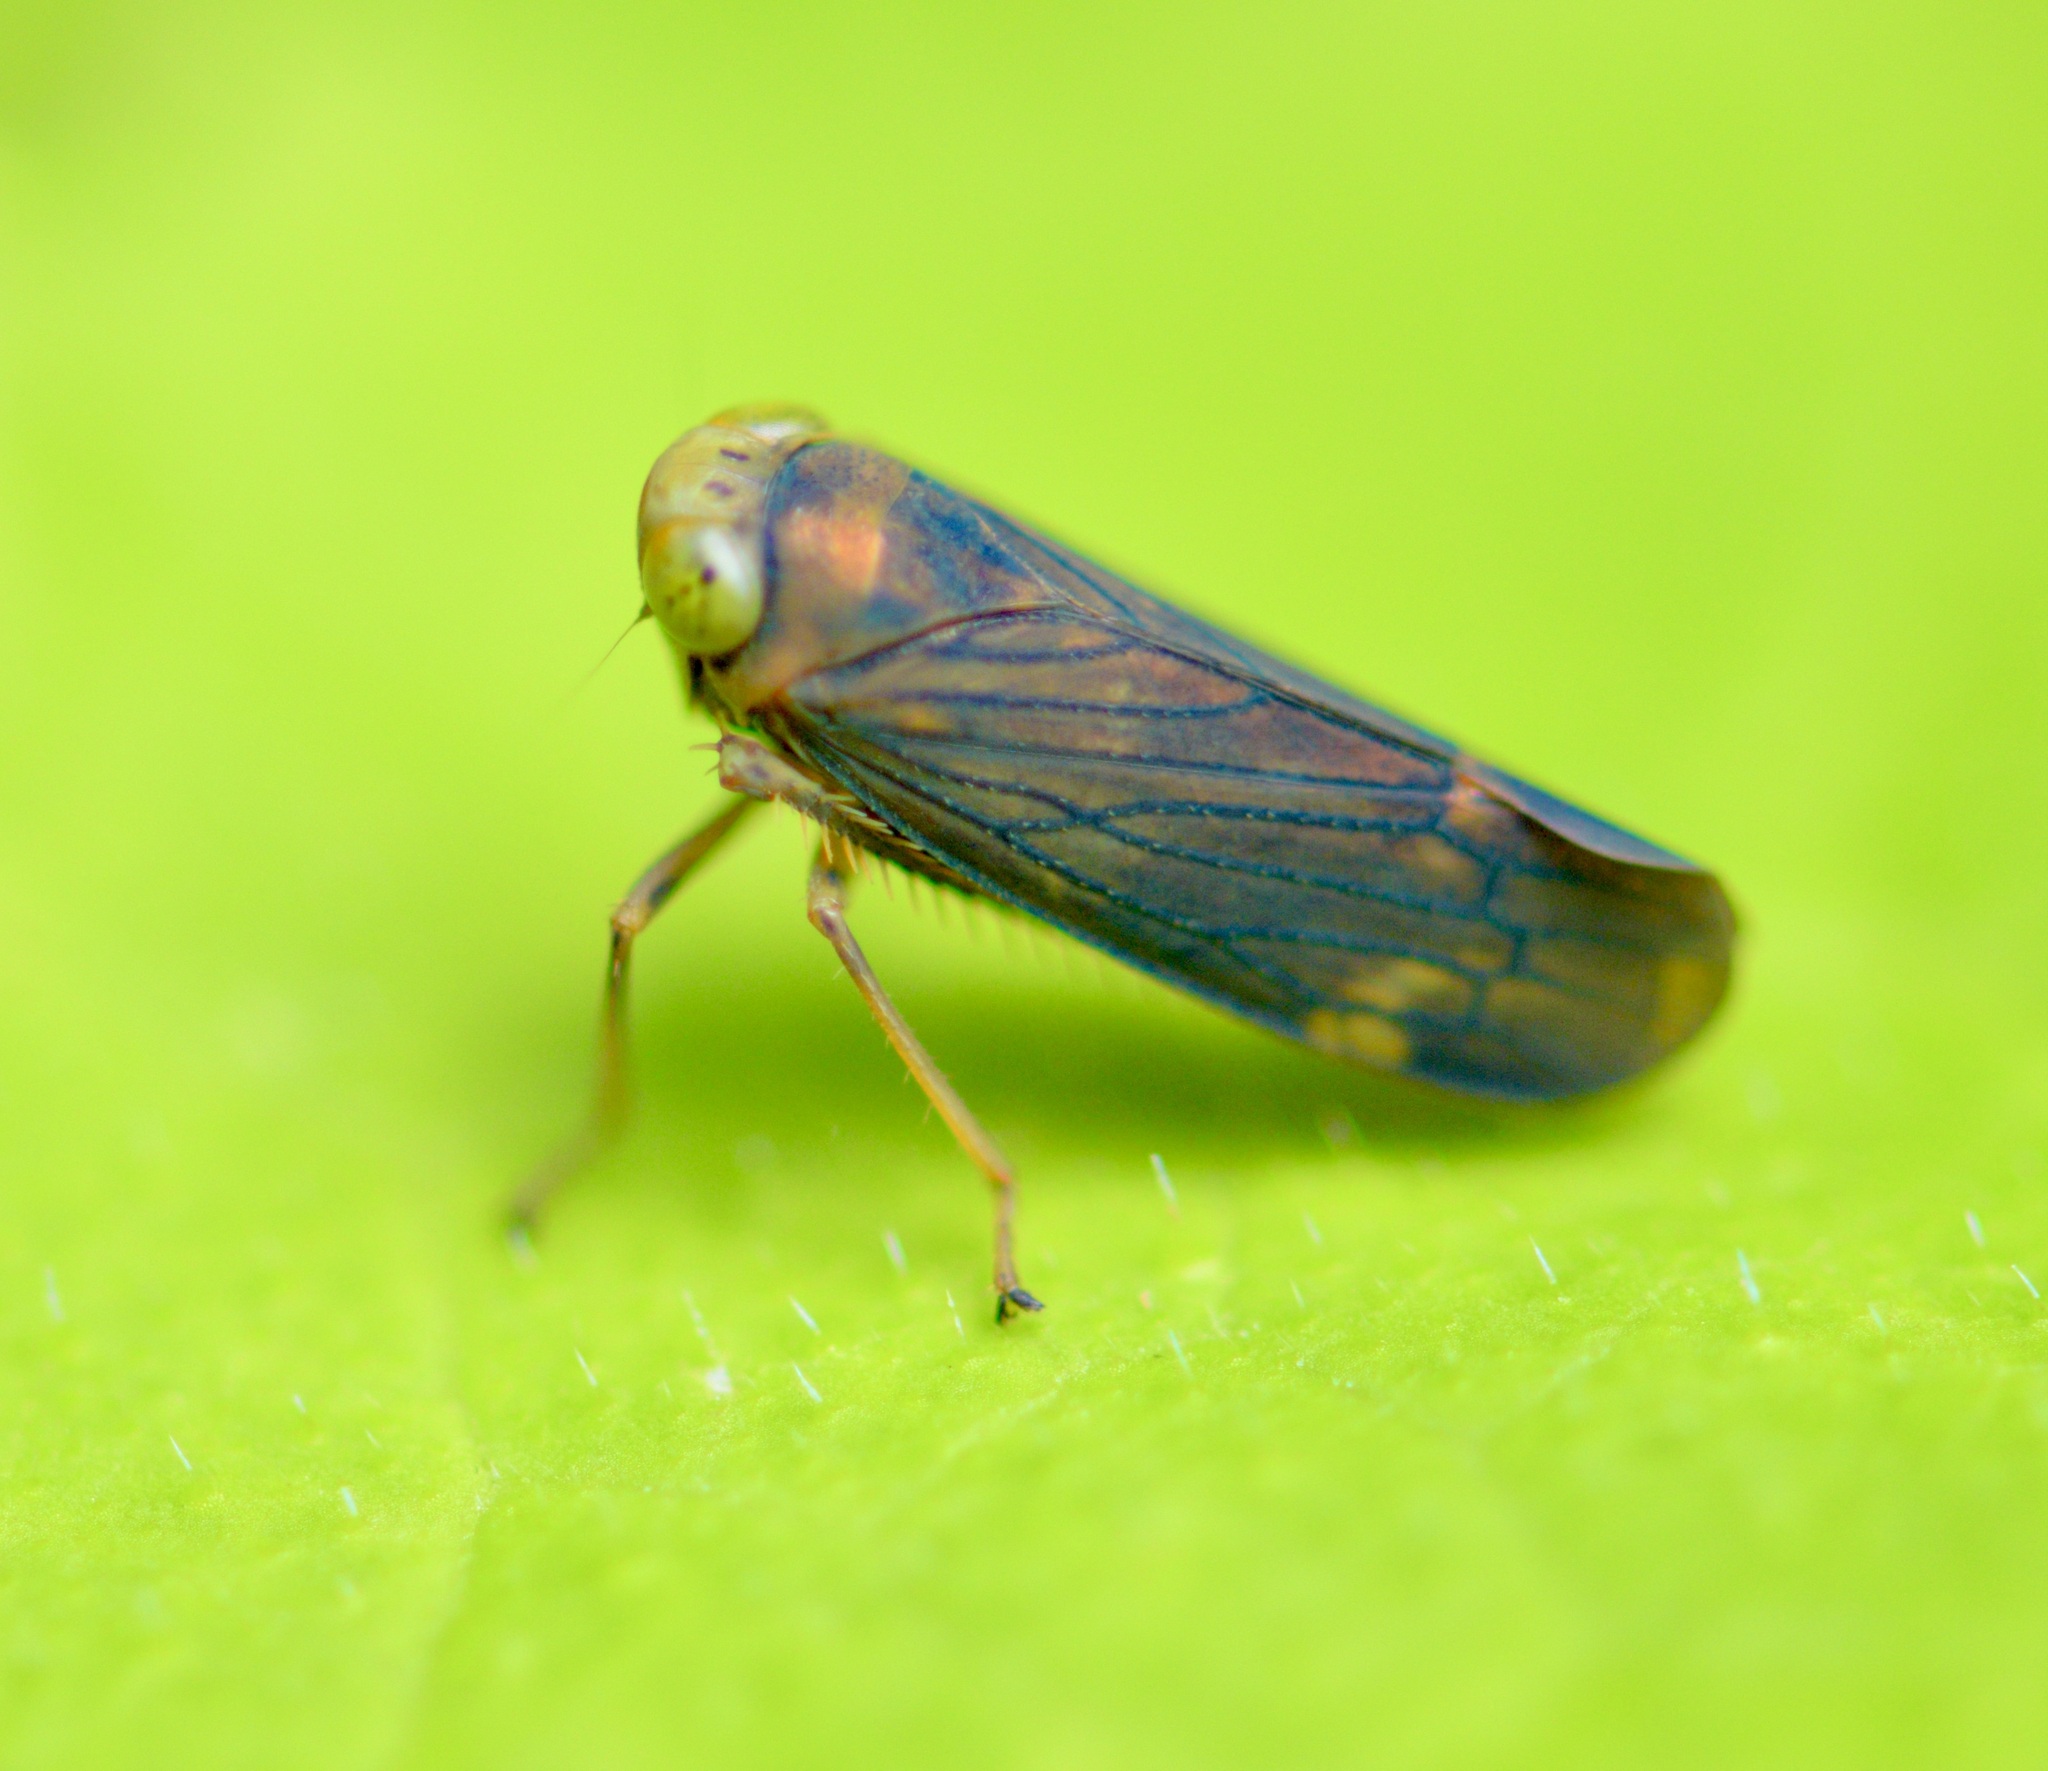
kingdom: Animalia
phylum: Arthropoda
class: Insecta
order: Hemiptera
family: Cicadellidae
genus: Jikradia
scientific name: Jikradia olitoria
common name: Coppery leafhopper
